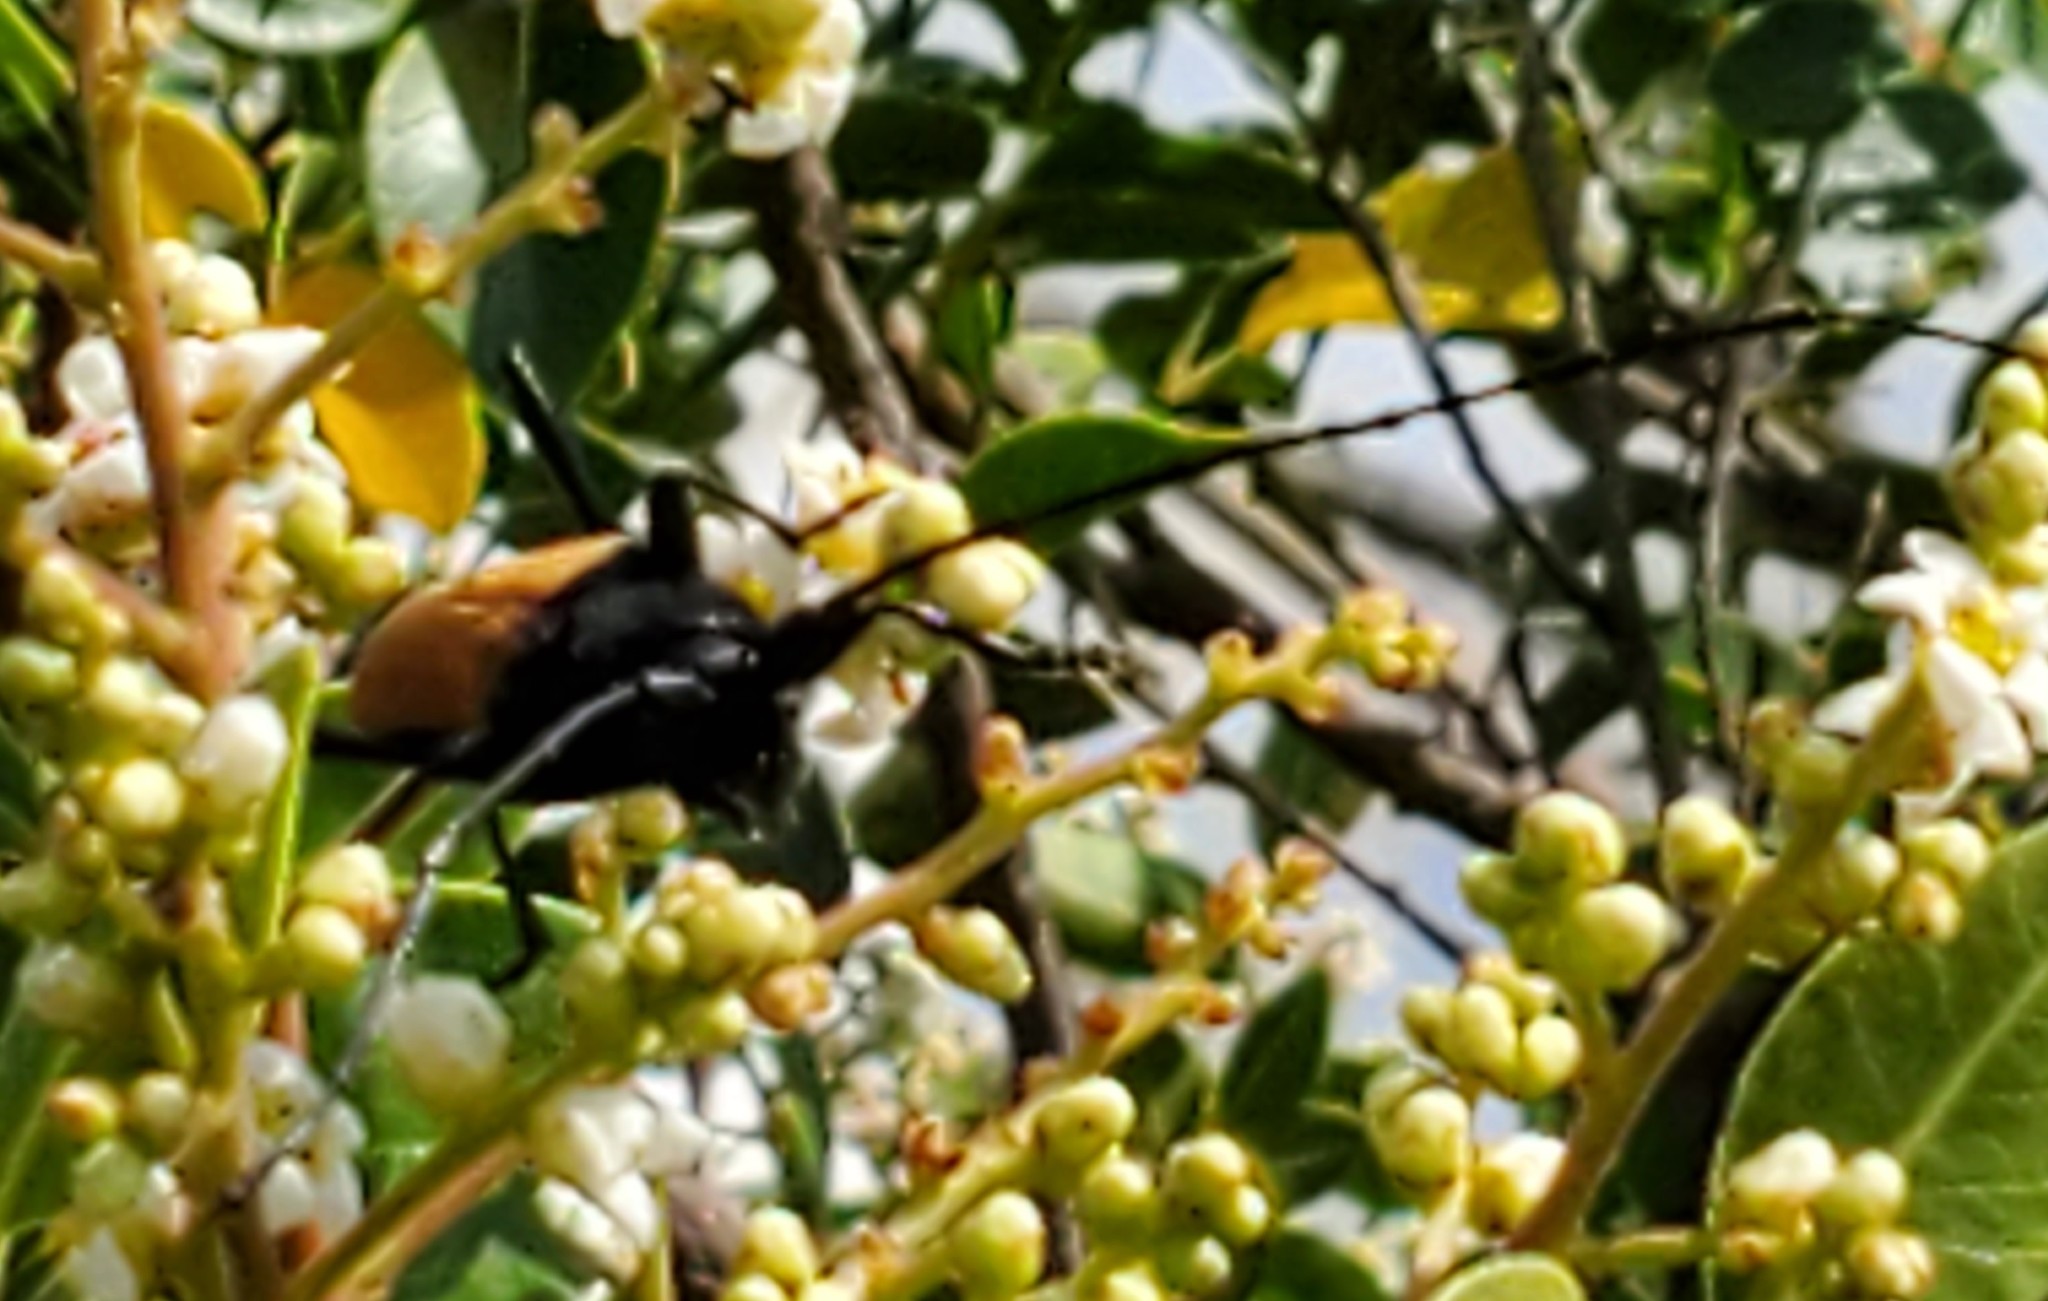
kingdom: Animalia
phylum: Arthropoda
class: Insecta
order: Coleoptera
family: Cerambycidae
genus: Tragidion
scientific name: Tragidion coquus
